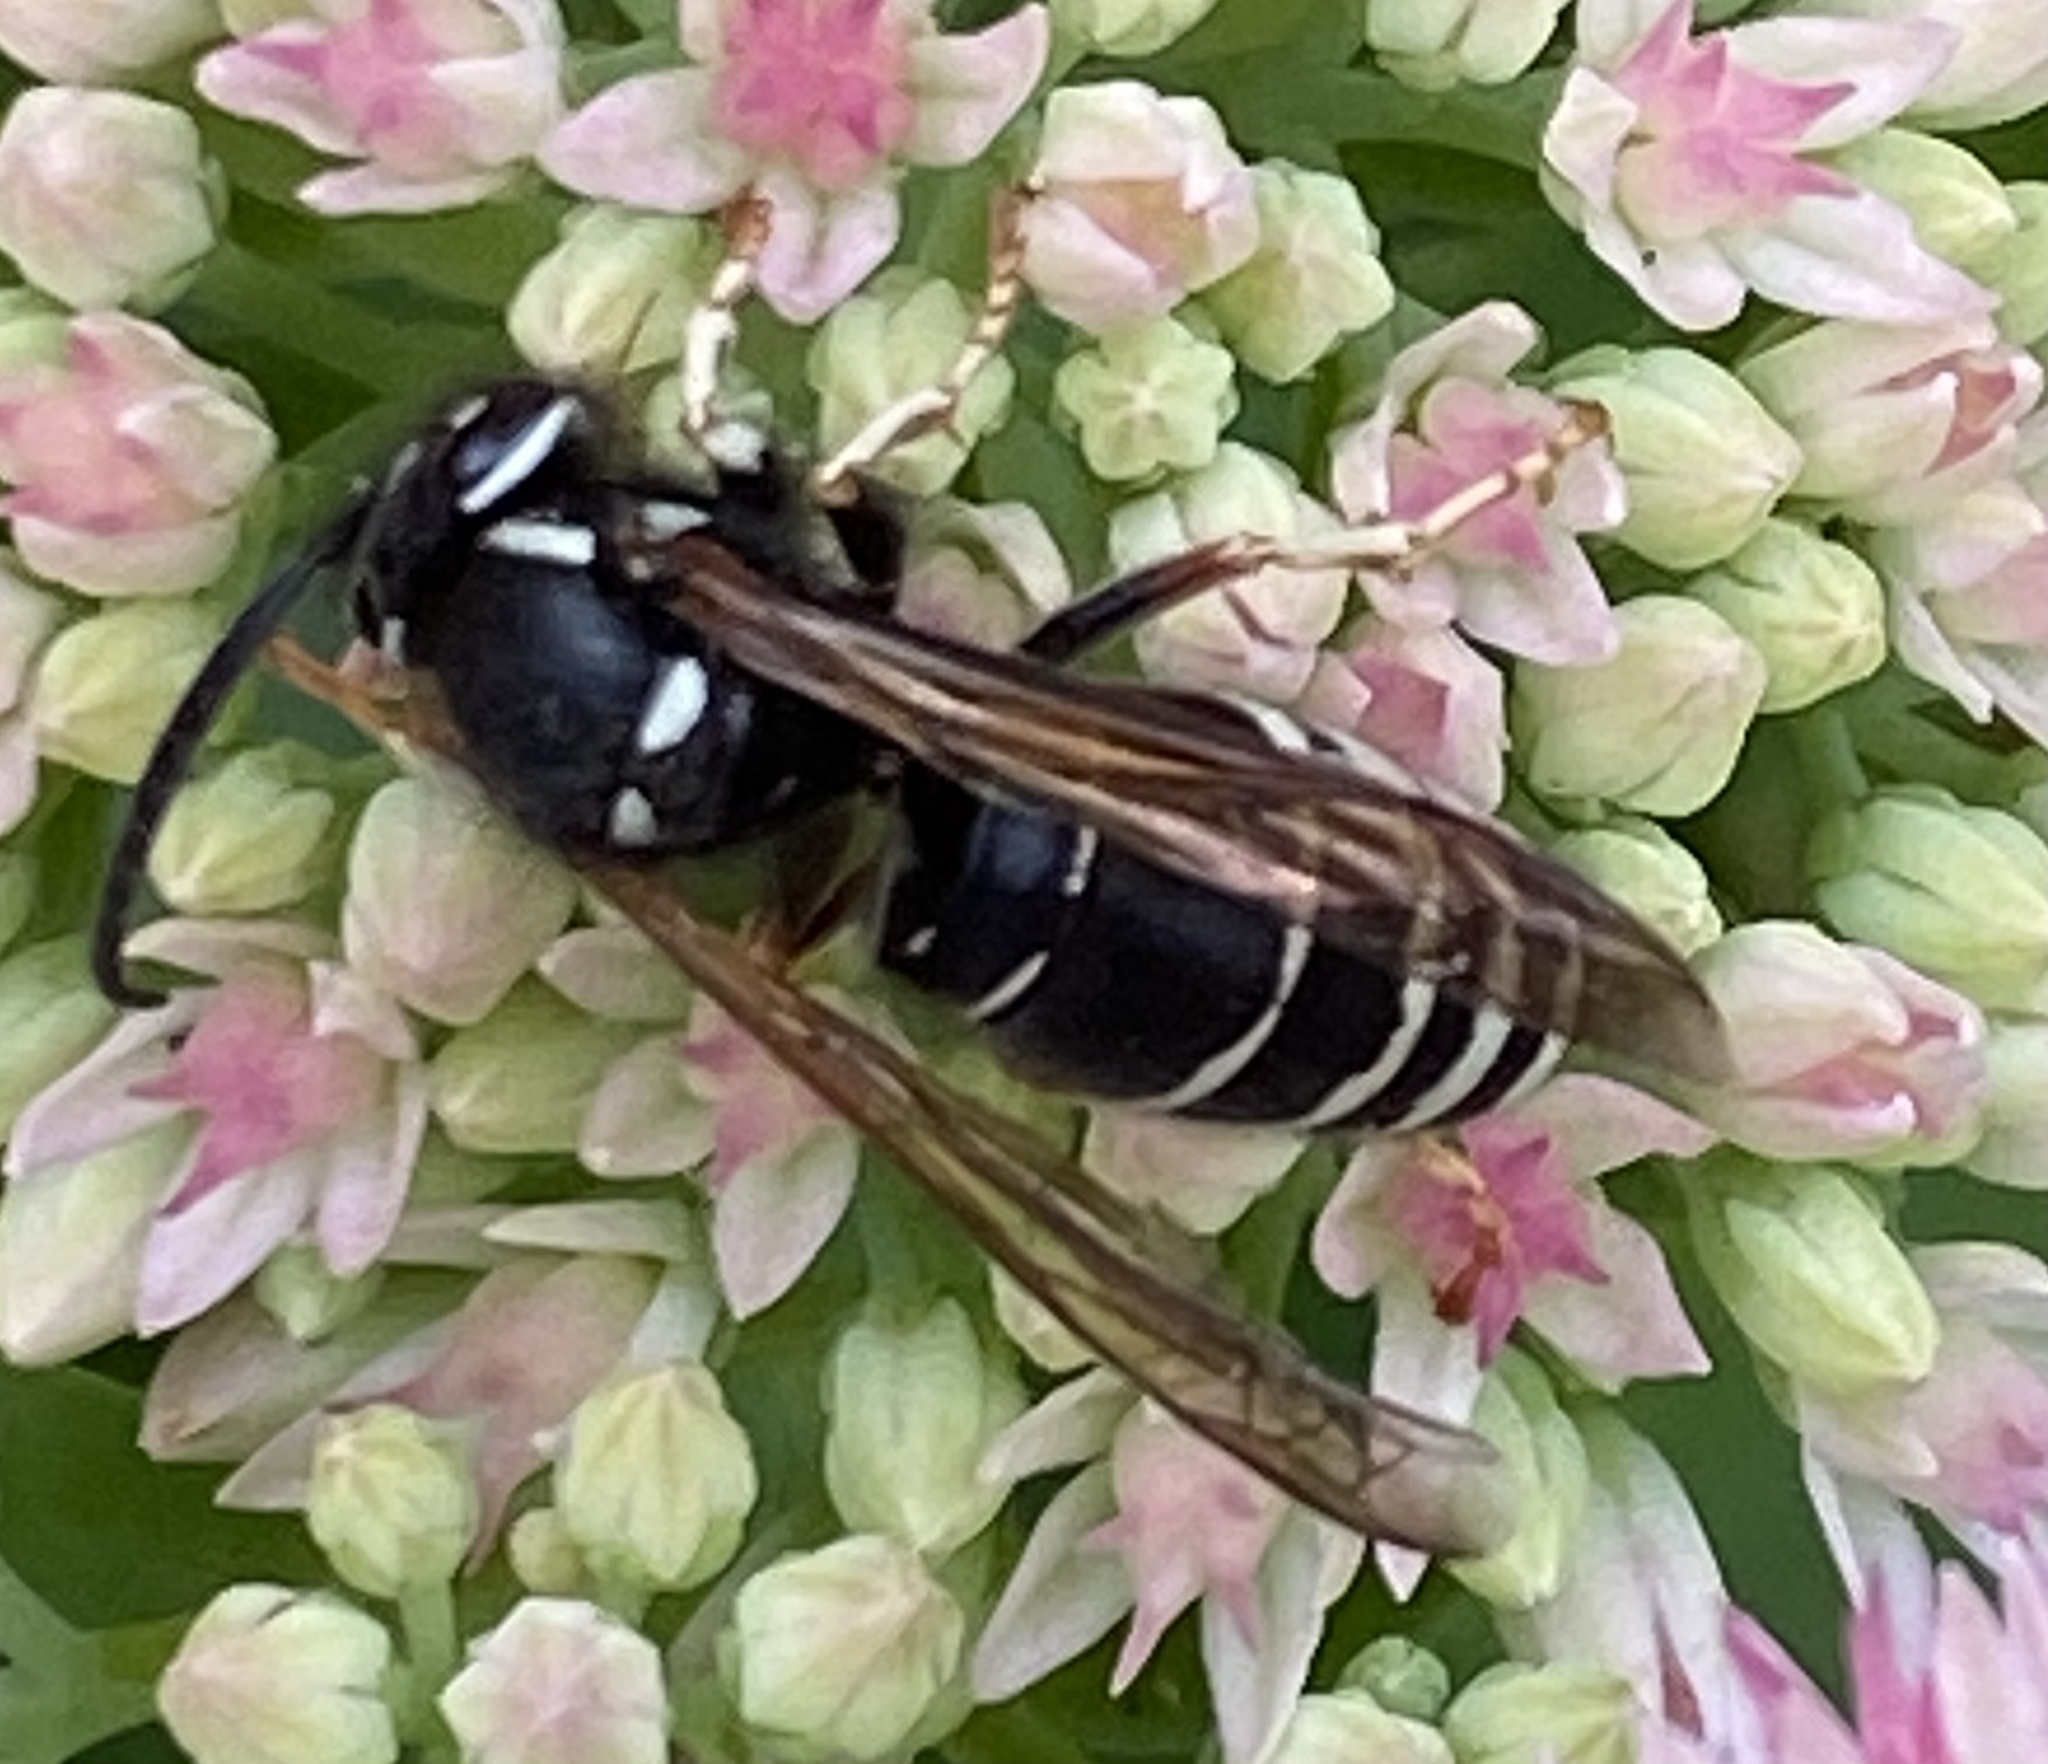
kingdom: Animalia
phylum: Arthropoda
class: Insecta
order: Hymenoptera
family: Vespidae
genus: Vespula
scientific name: Vespula consobrina
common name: Blackjacket
